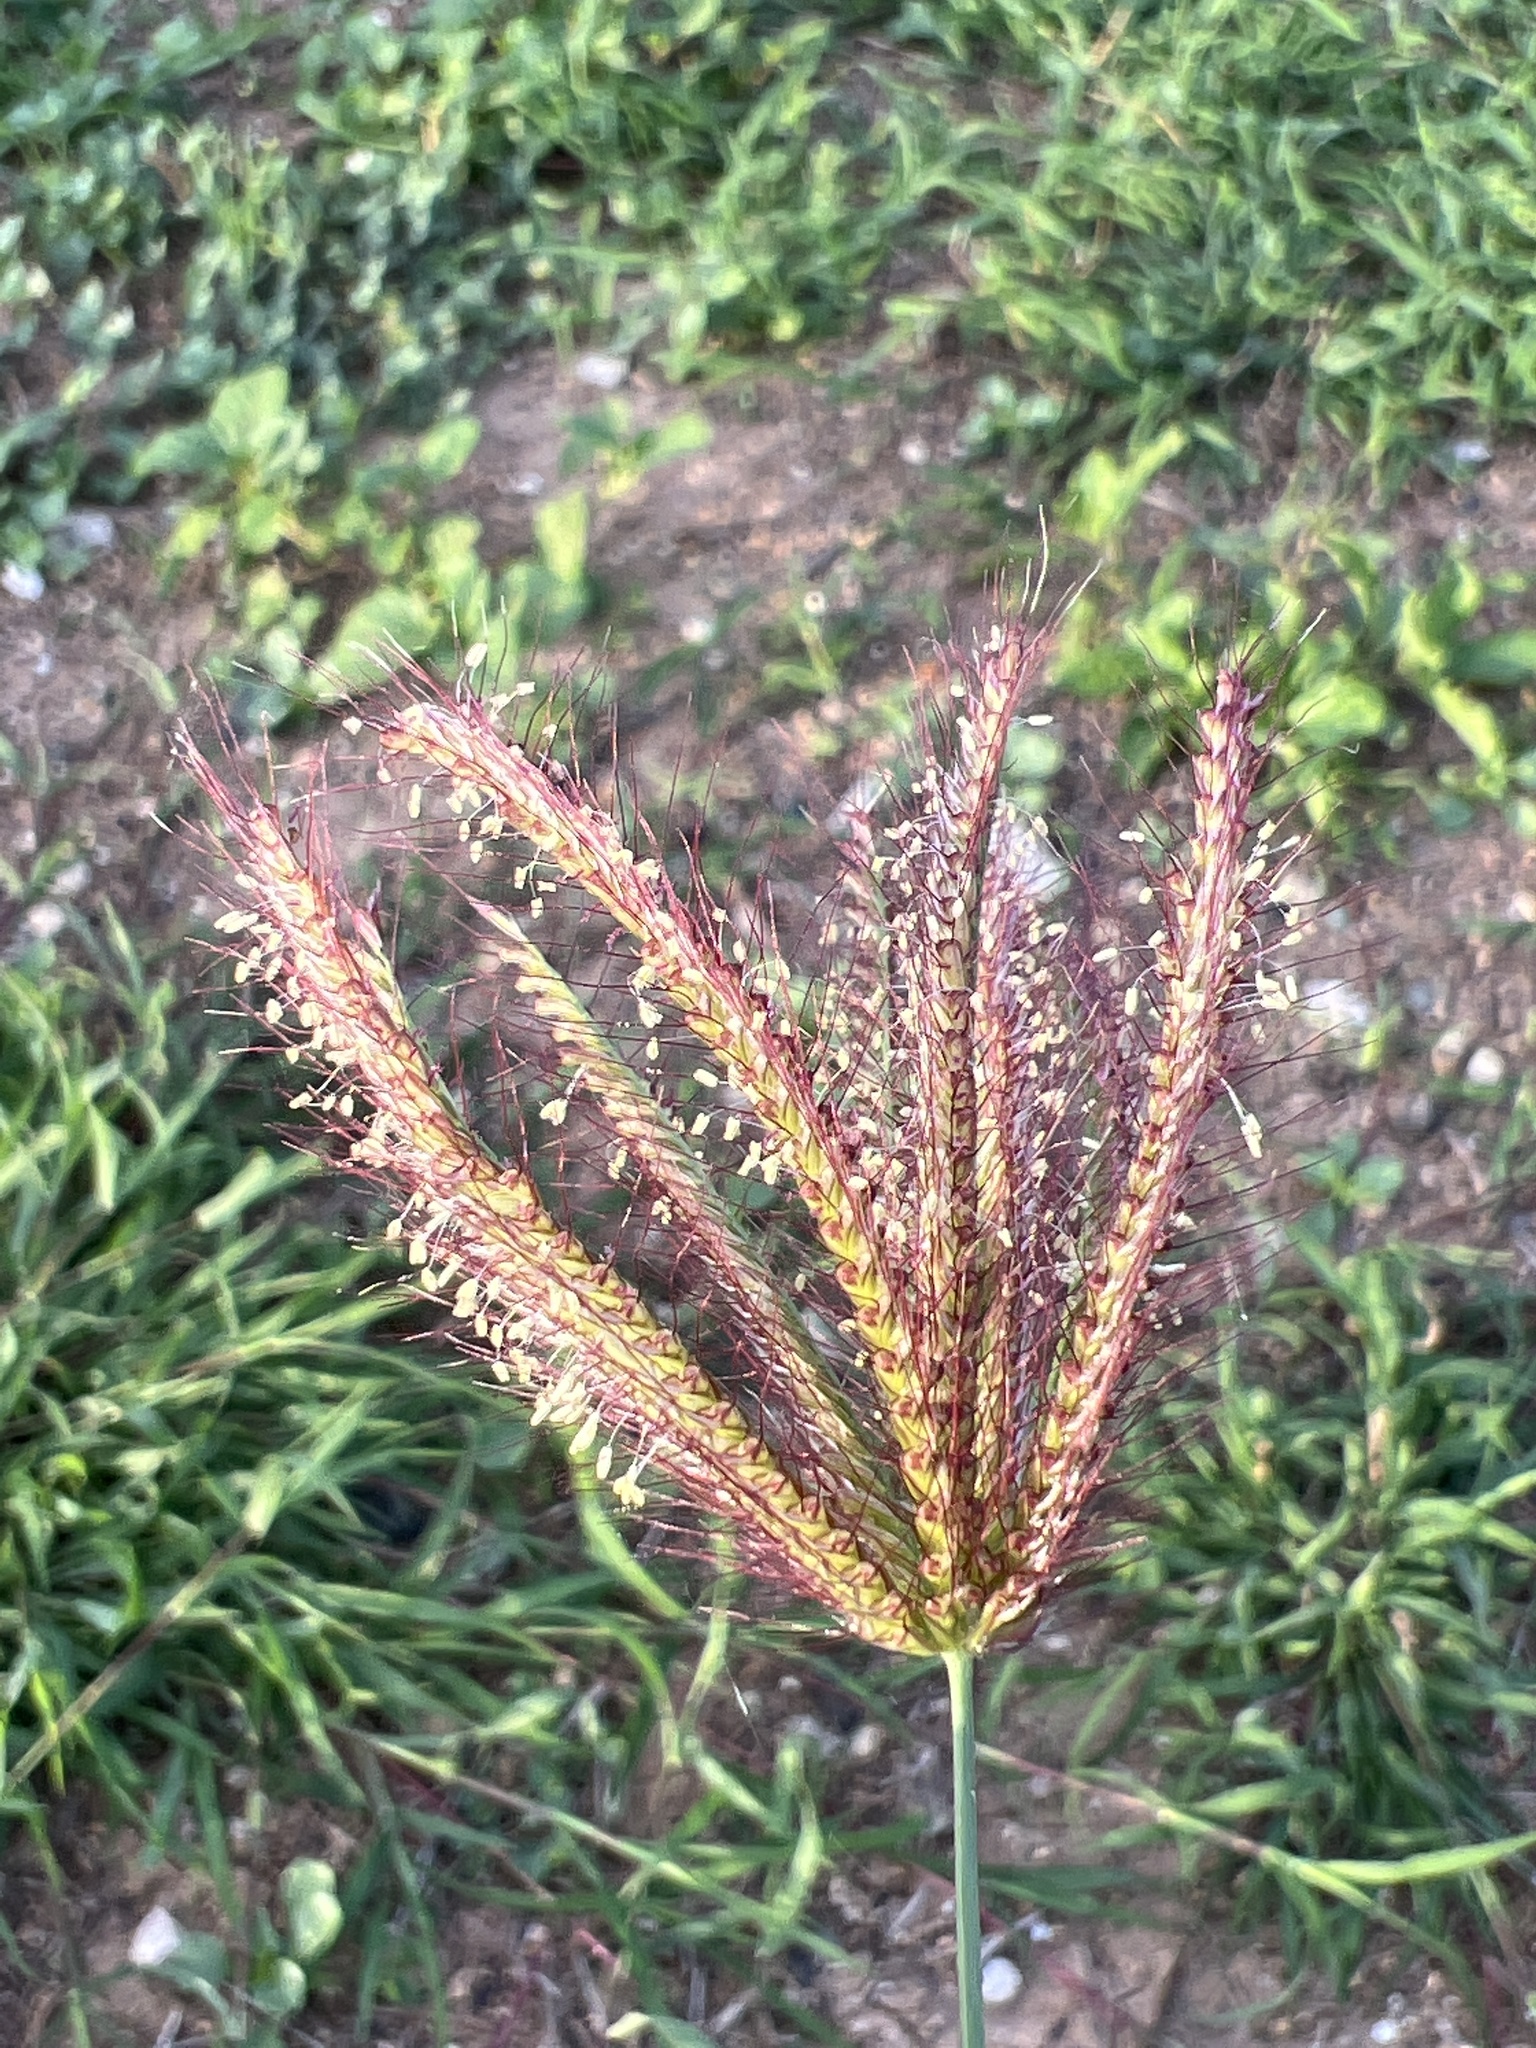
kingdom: Plantae
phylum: Tracheophyta
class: Liliopsida
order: Poales
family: Poaceae
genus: Chloris
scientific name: Chloris barbata
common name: Swollen fingergrass
